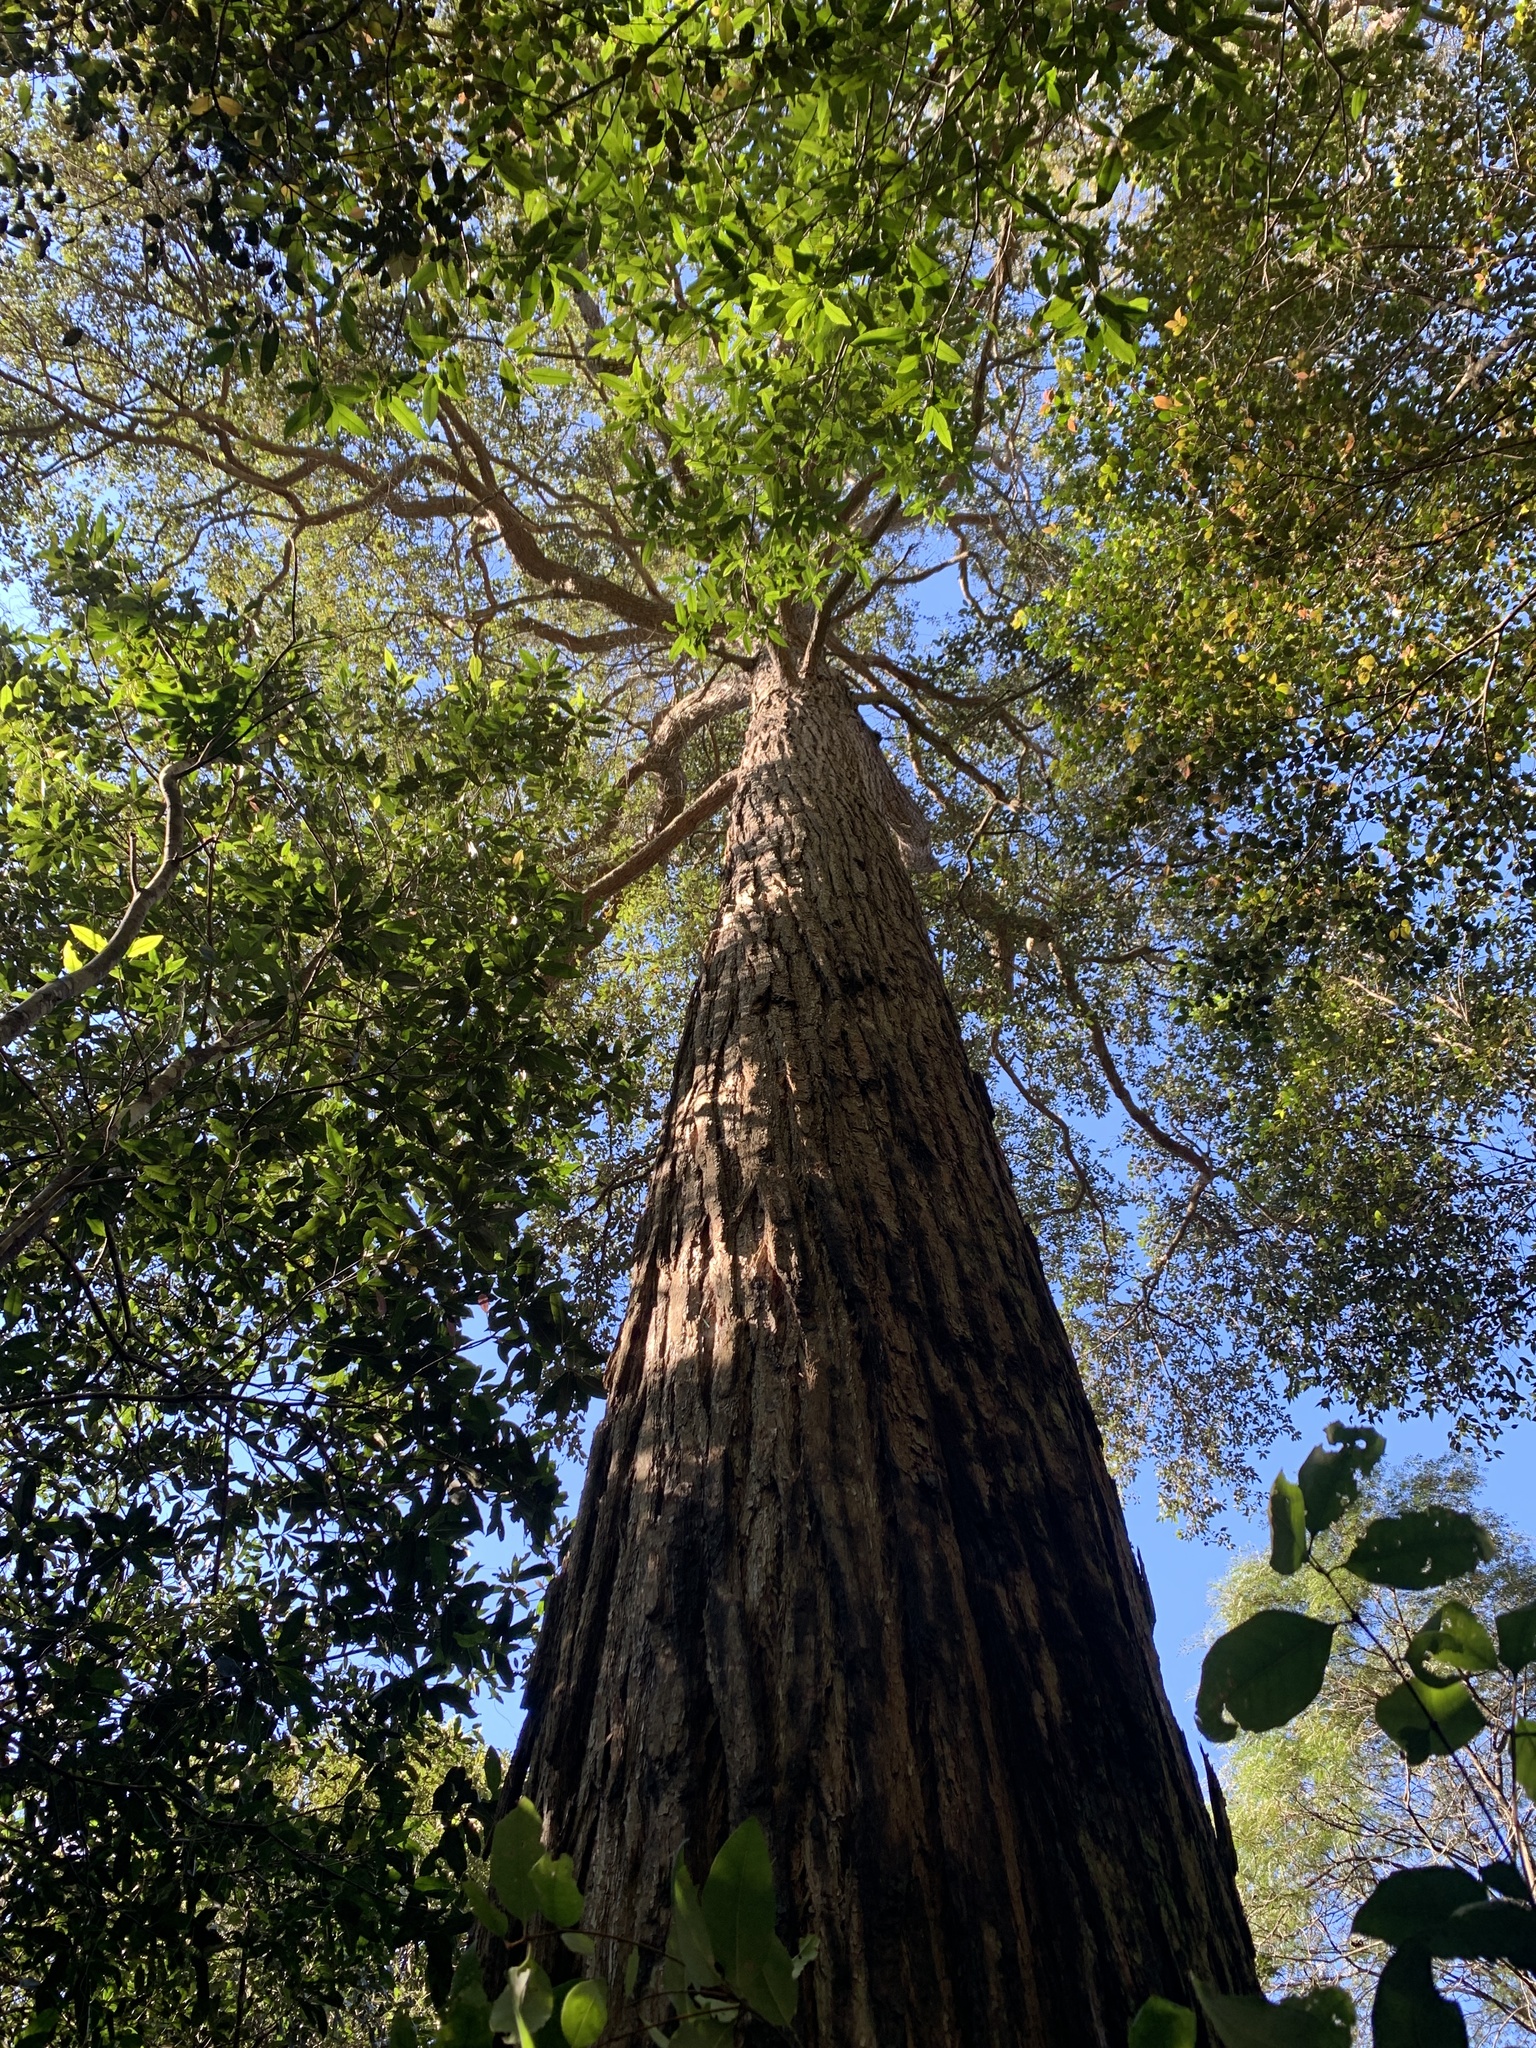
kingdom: Plantae
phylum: Tracheophyta
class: Magnoliopsida
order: Myrtales
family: Myrtaceae
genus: Syncarpia
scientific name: Syncarpia glomulifera
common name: Turpentine tree
